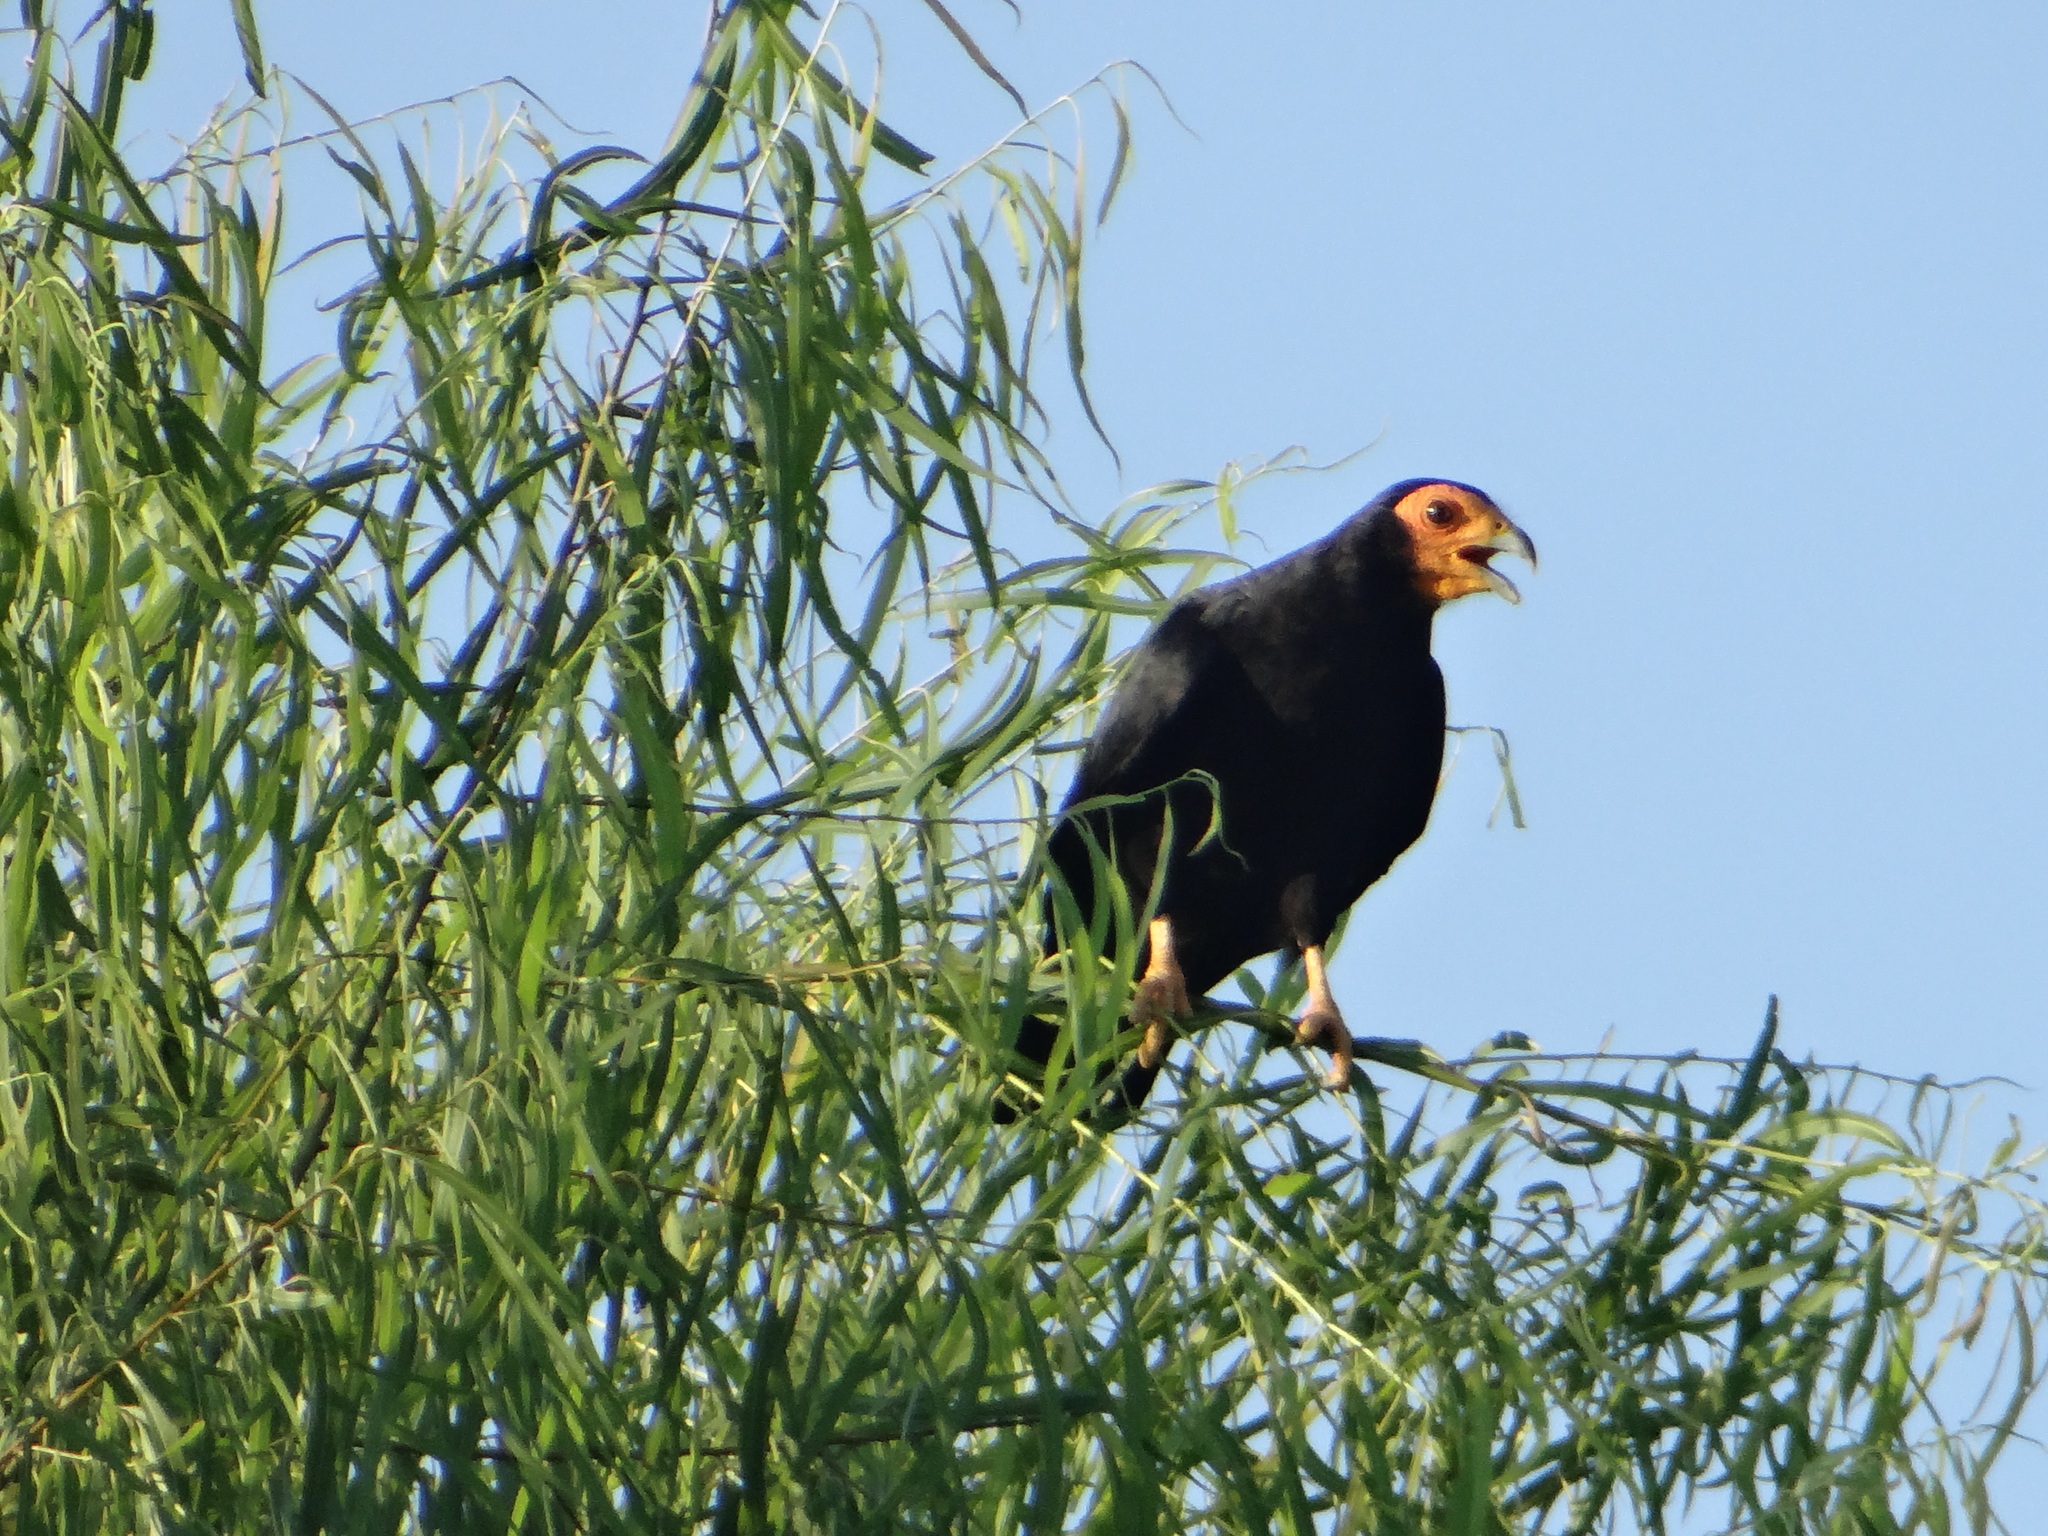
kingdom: Animalia
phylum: Chordata
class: Aves
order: Falconiformes
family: Falconidae
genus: Daptrius
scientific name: Daptrius ater
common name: Black caracara
